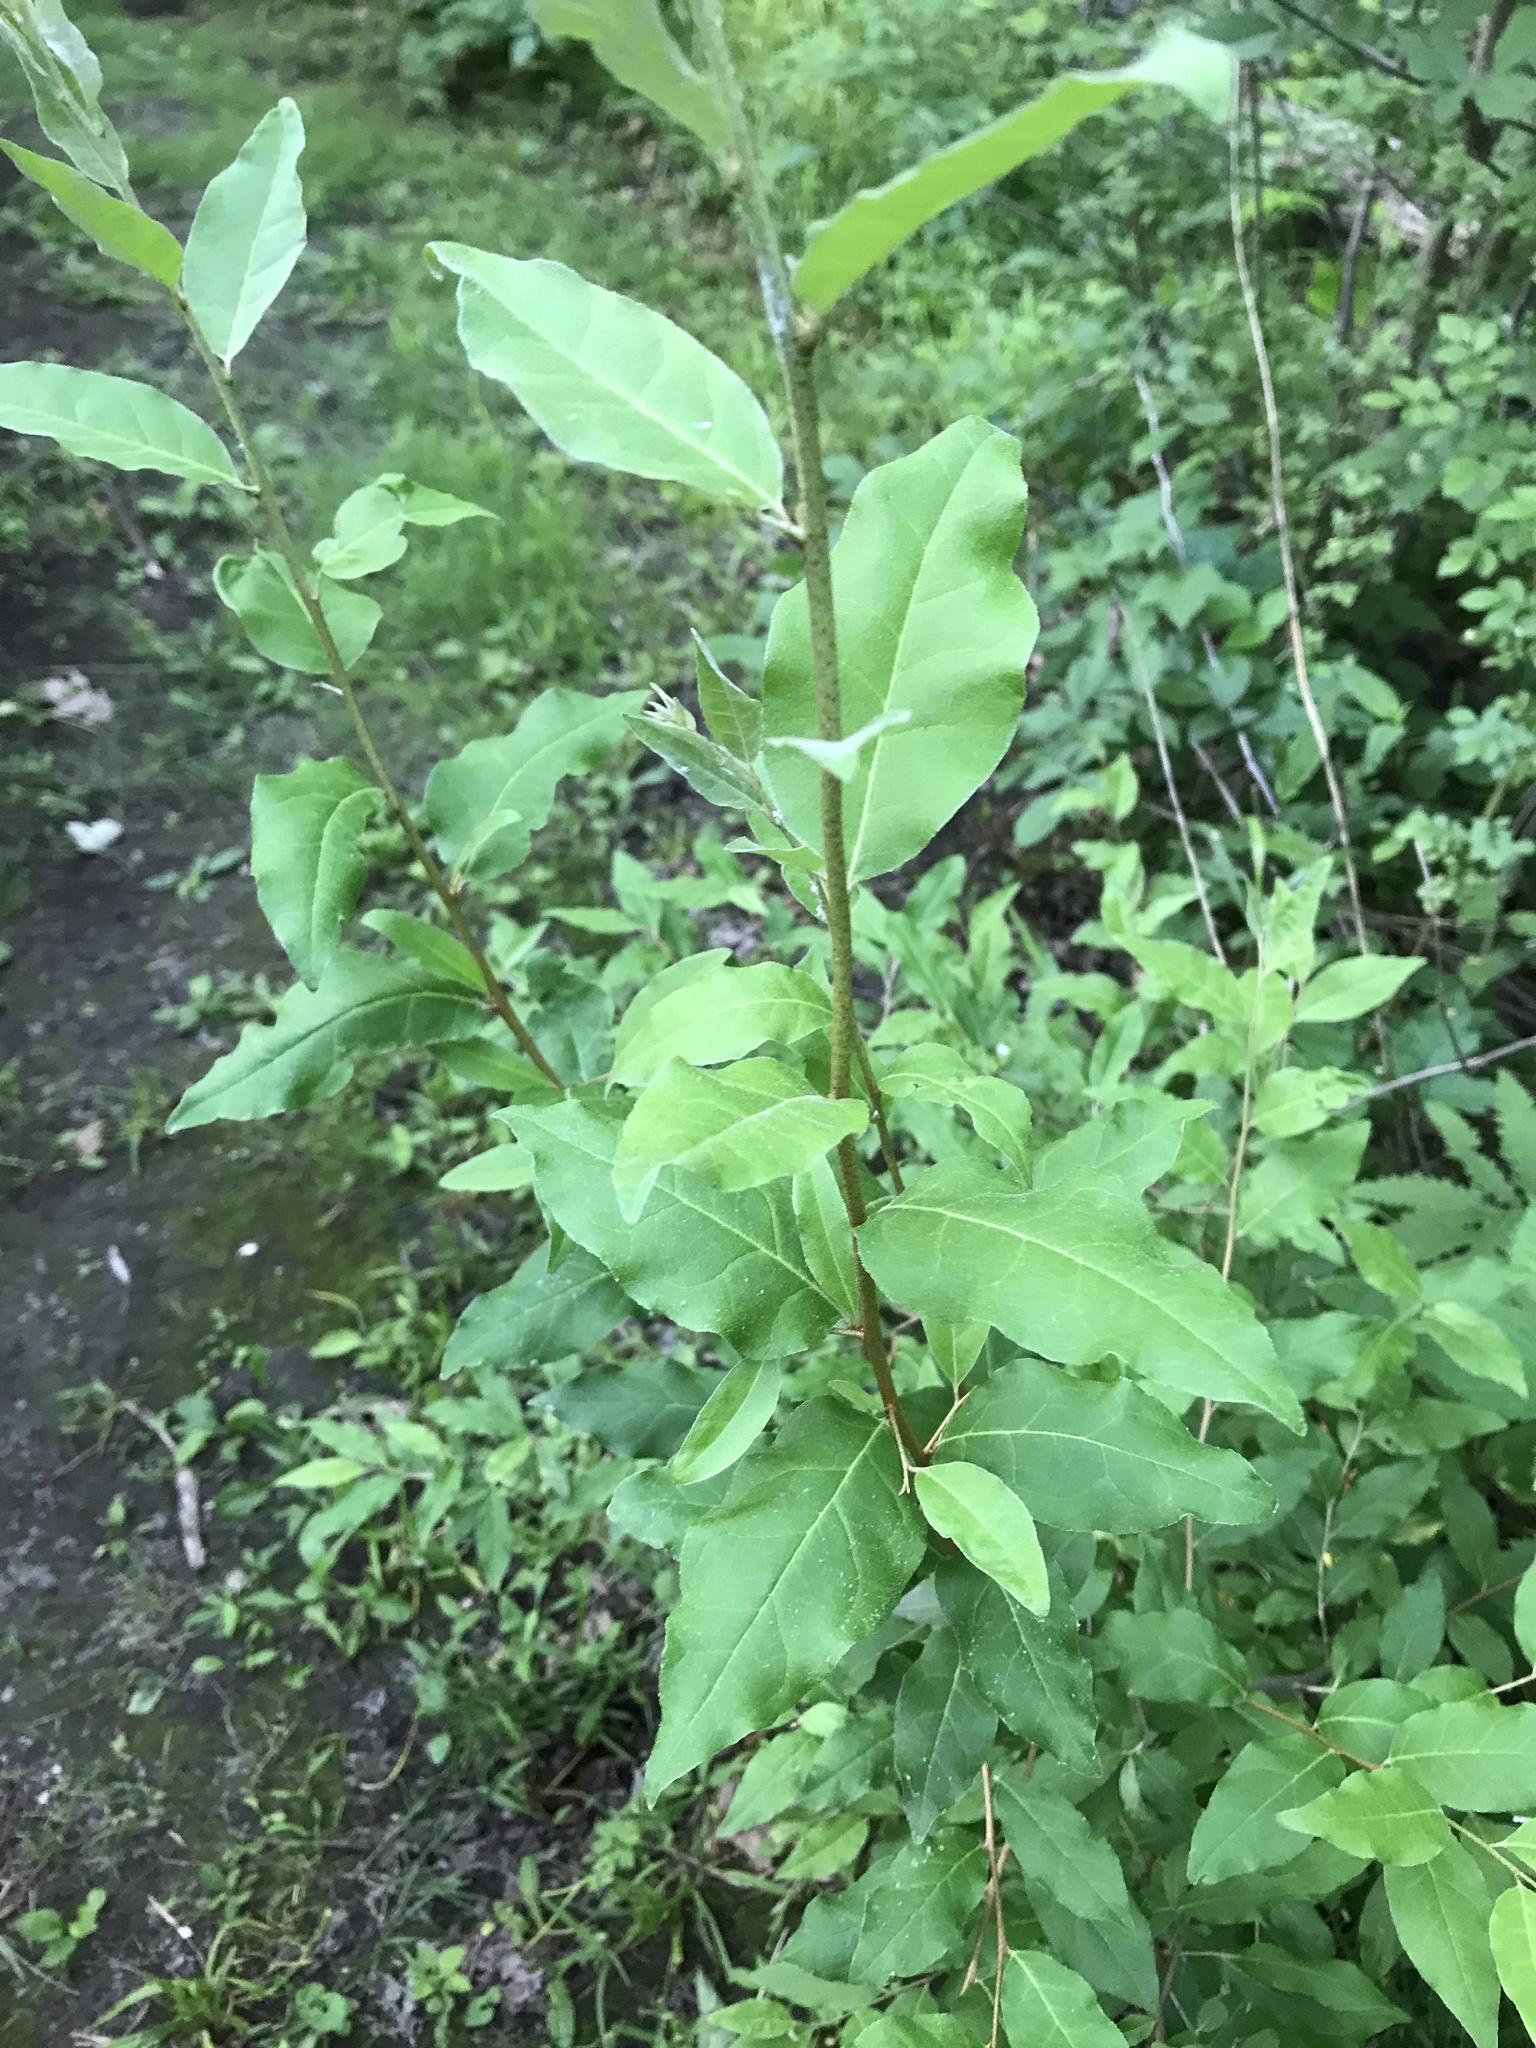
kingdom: Plantae
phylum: Tracheophyta
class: Magnoliopsida
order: Rosales
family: Elaeagnaceae
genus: Elaeagnus
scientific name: Elaeagnus umbellata
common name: Autumn olive
